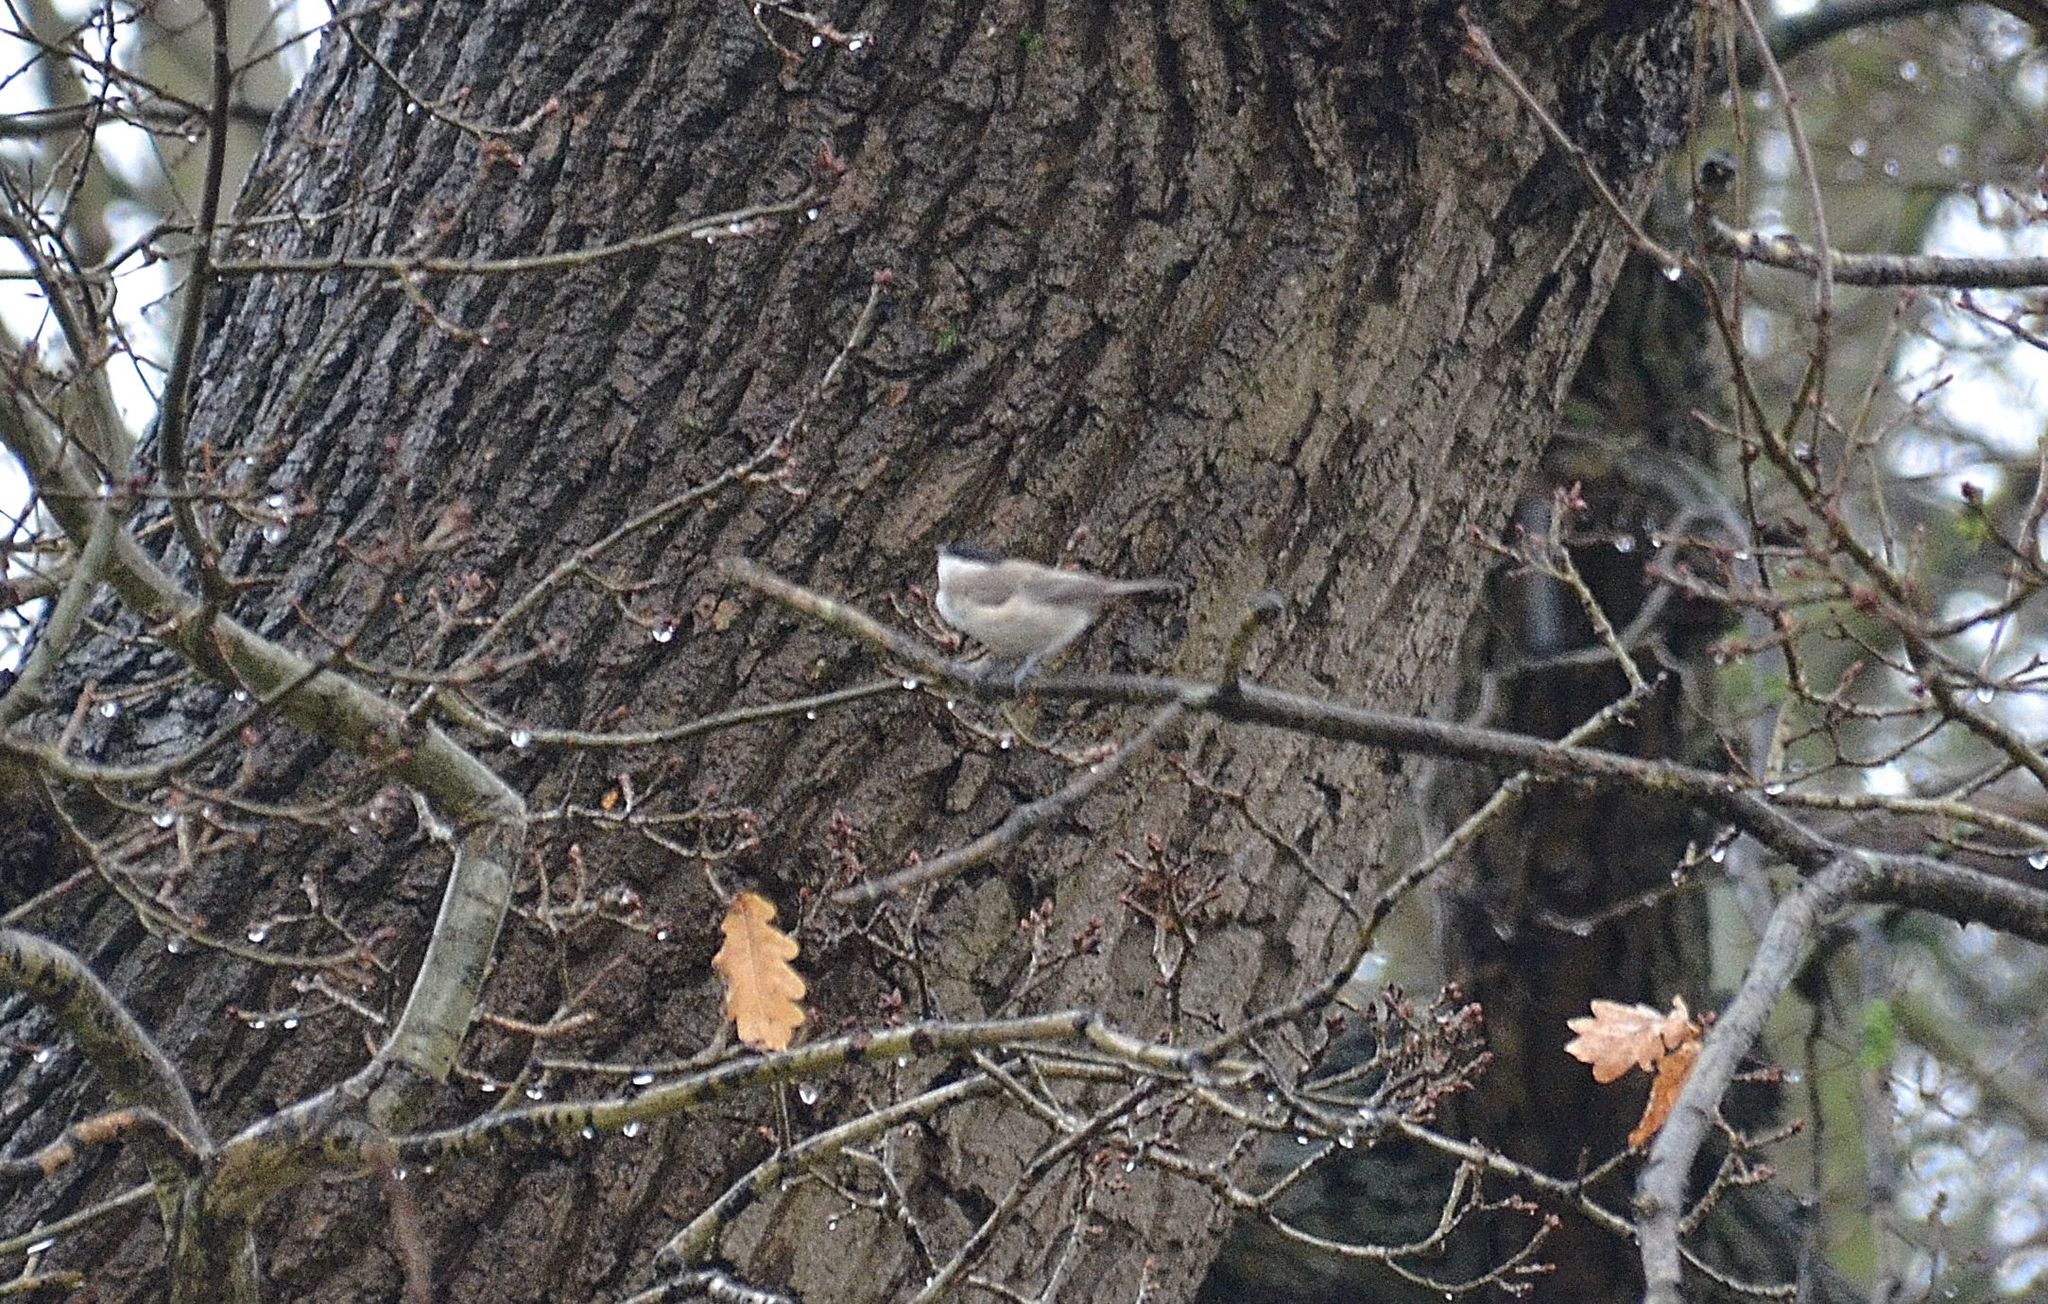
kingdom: Animalia
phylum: Chordata
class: Aves
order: Passeriformes
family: Paridae
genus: Poecile
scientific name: Poecile
